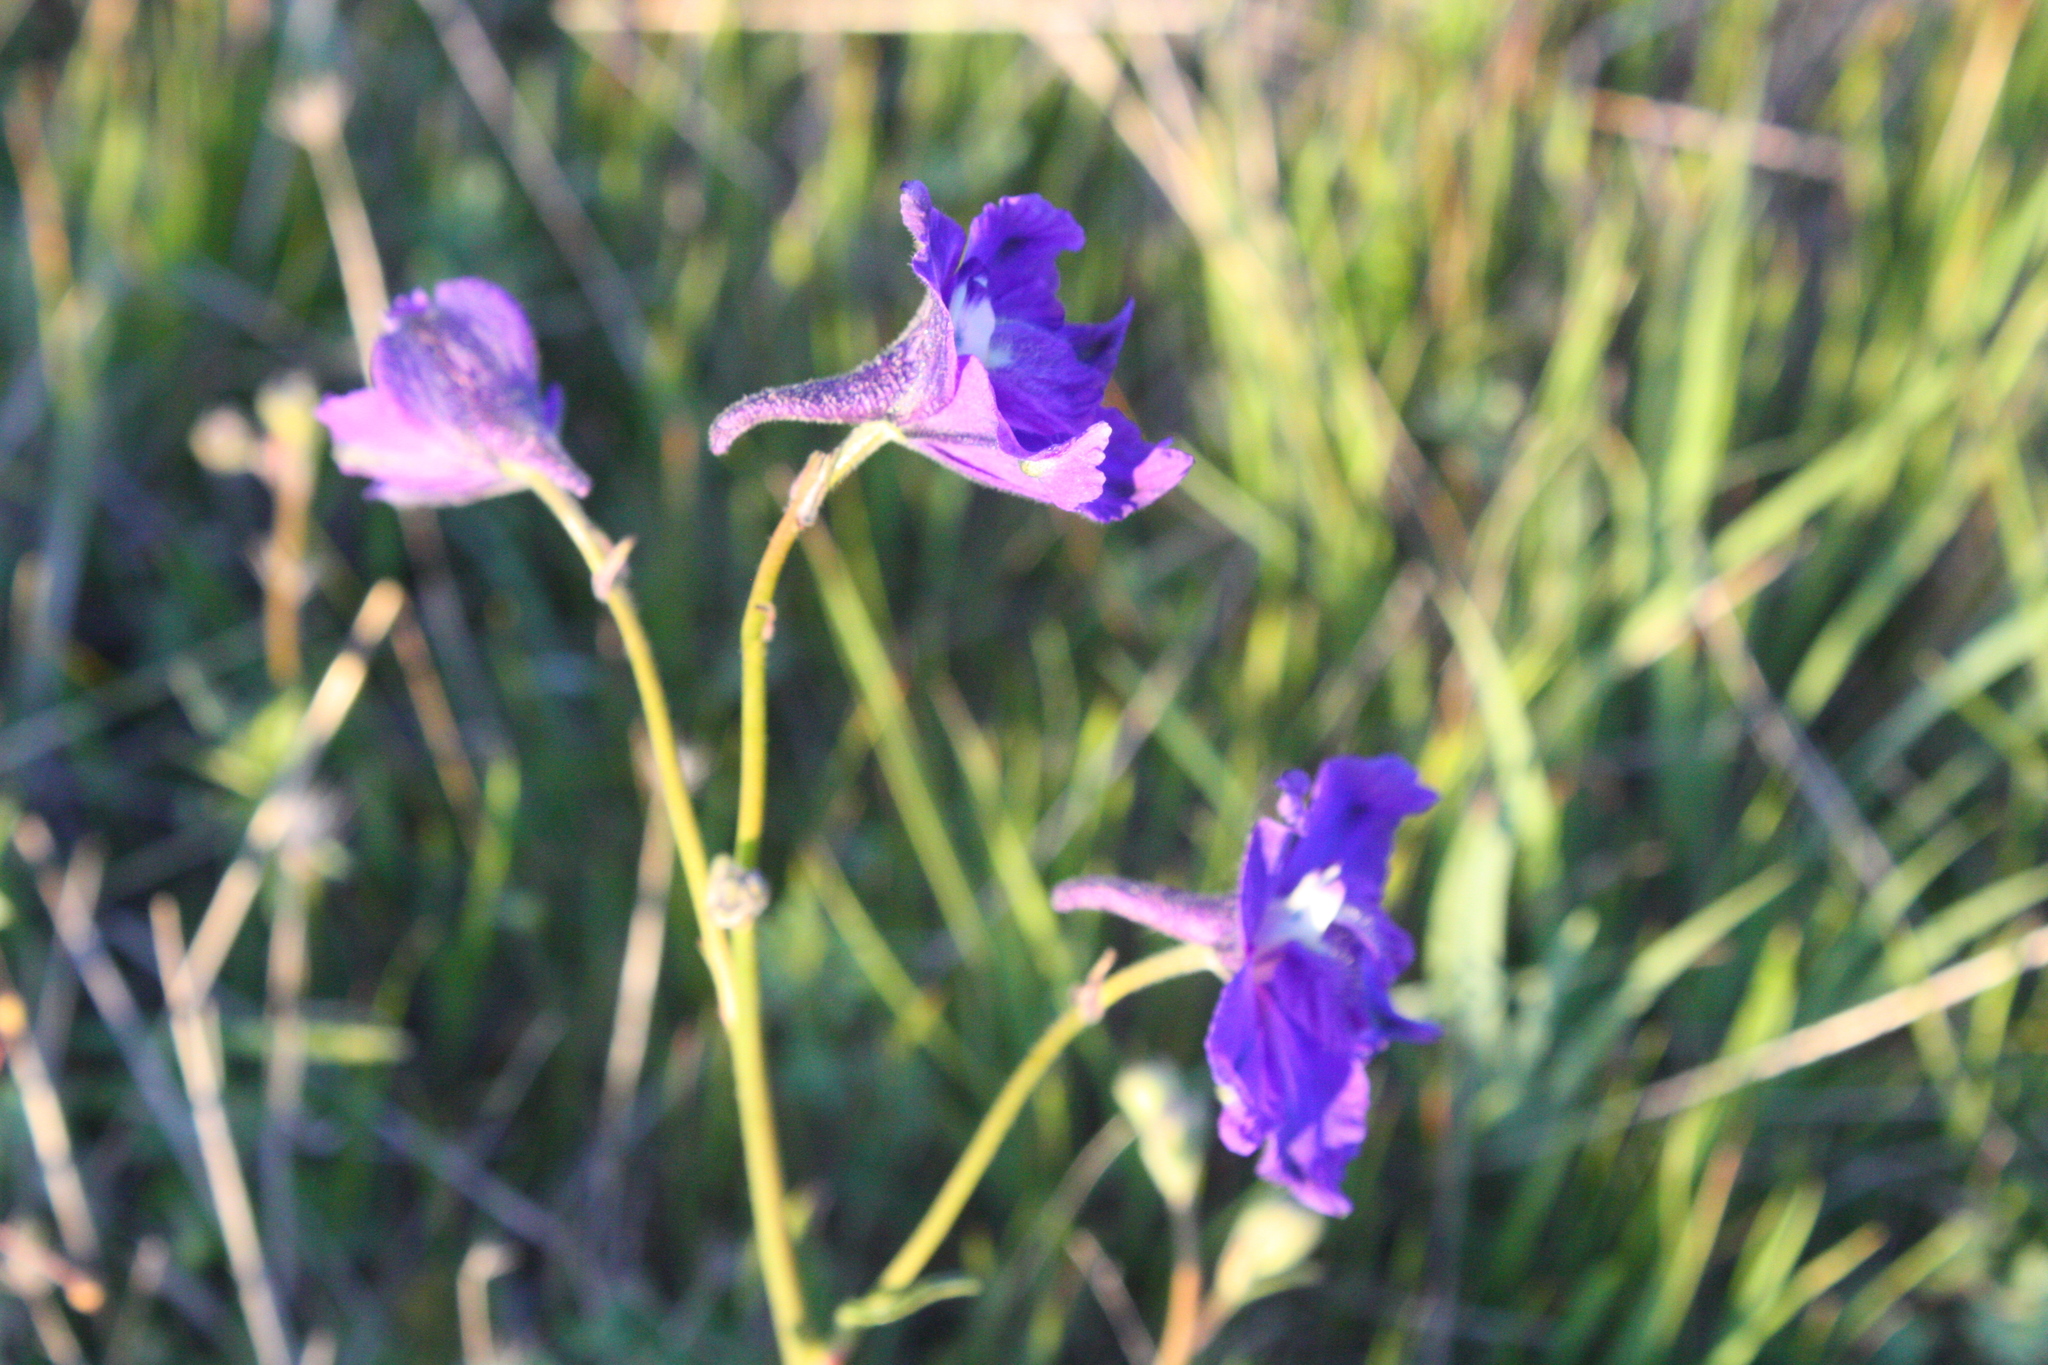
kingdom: Plantae
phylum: Tracheophyta
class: Magnoliopsida
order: Ranunculales
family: Ranunculaceae
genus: Delphinium
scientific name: Delphinium variegatum
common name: Royal larkspur
